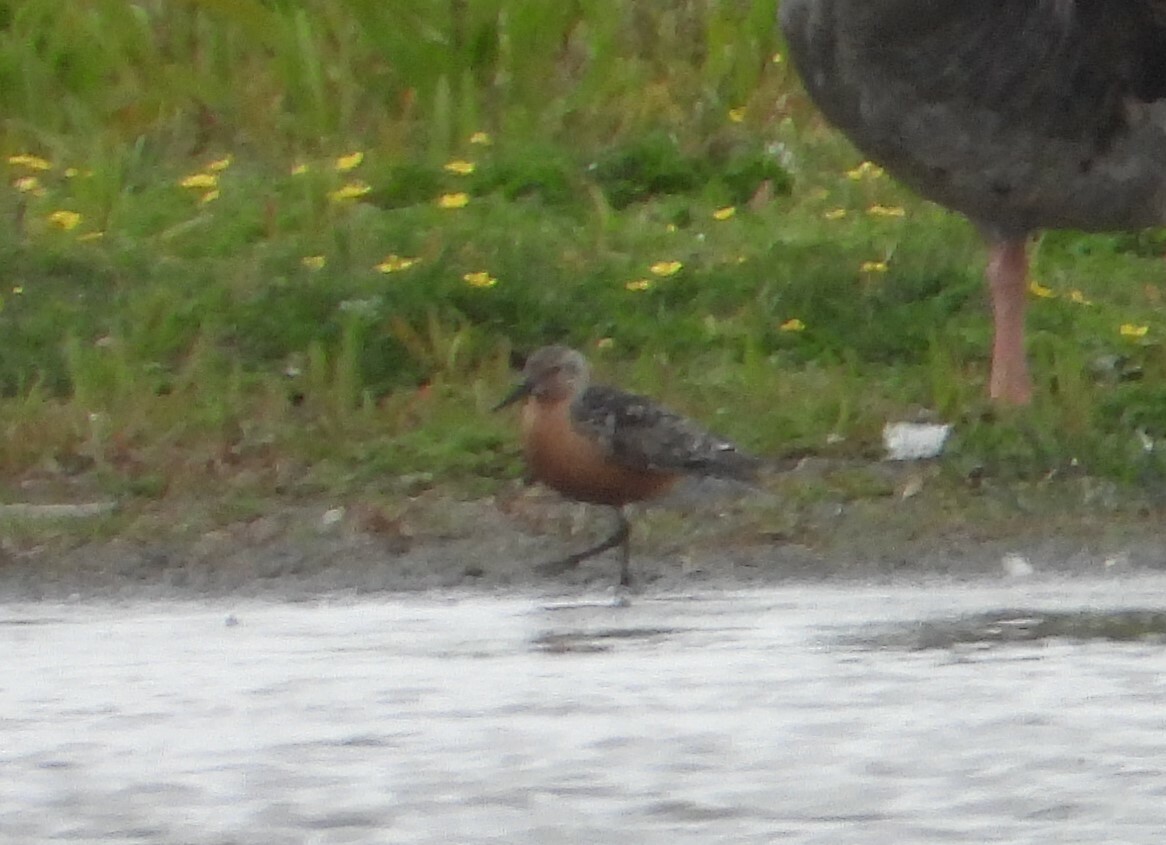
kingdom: Animalia
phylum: Chordata
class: Aves
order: Charadriiformes
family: Scolopacidae
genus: Calidris
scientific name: Calidris canutus
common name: Red knot
